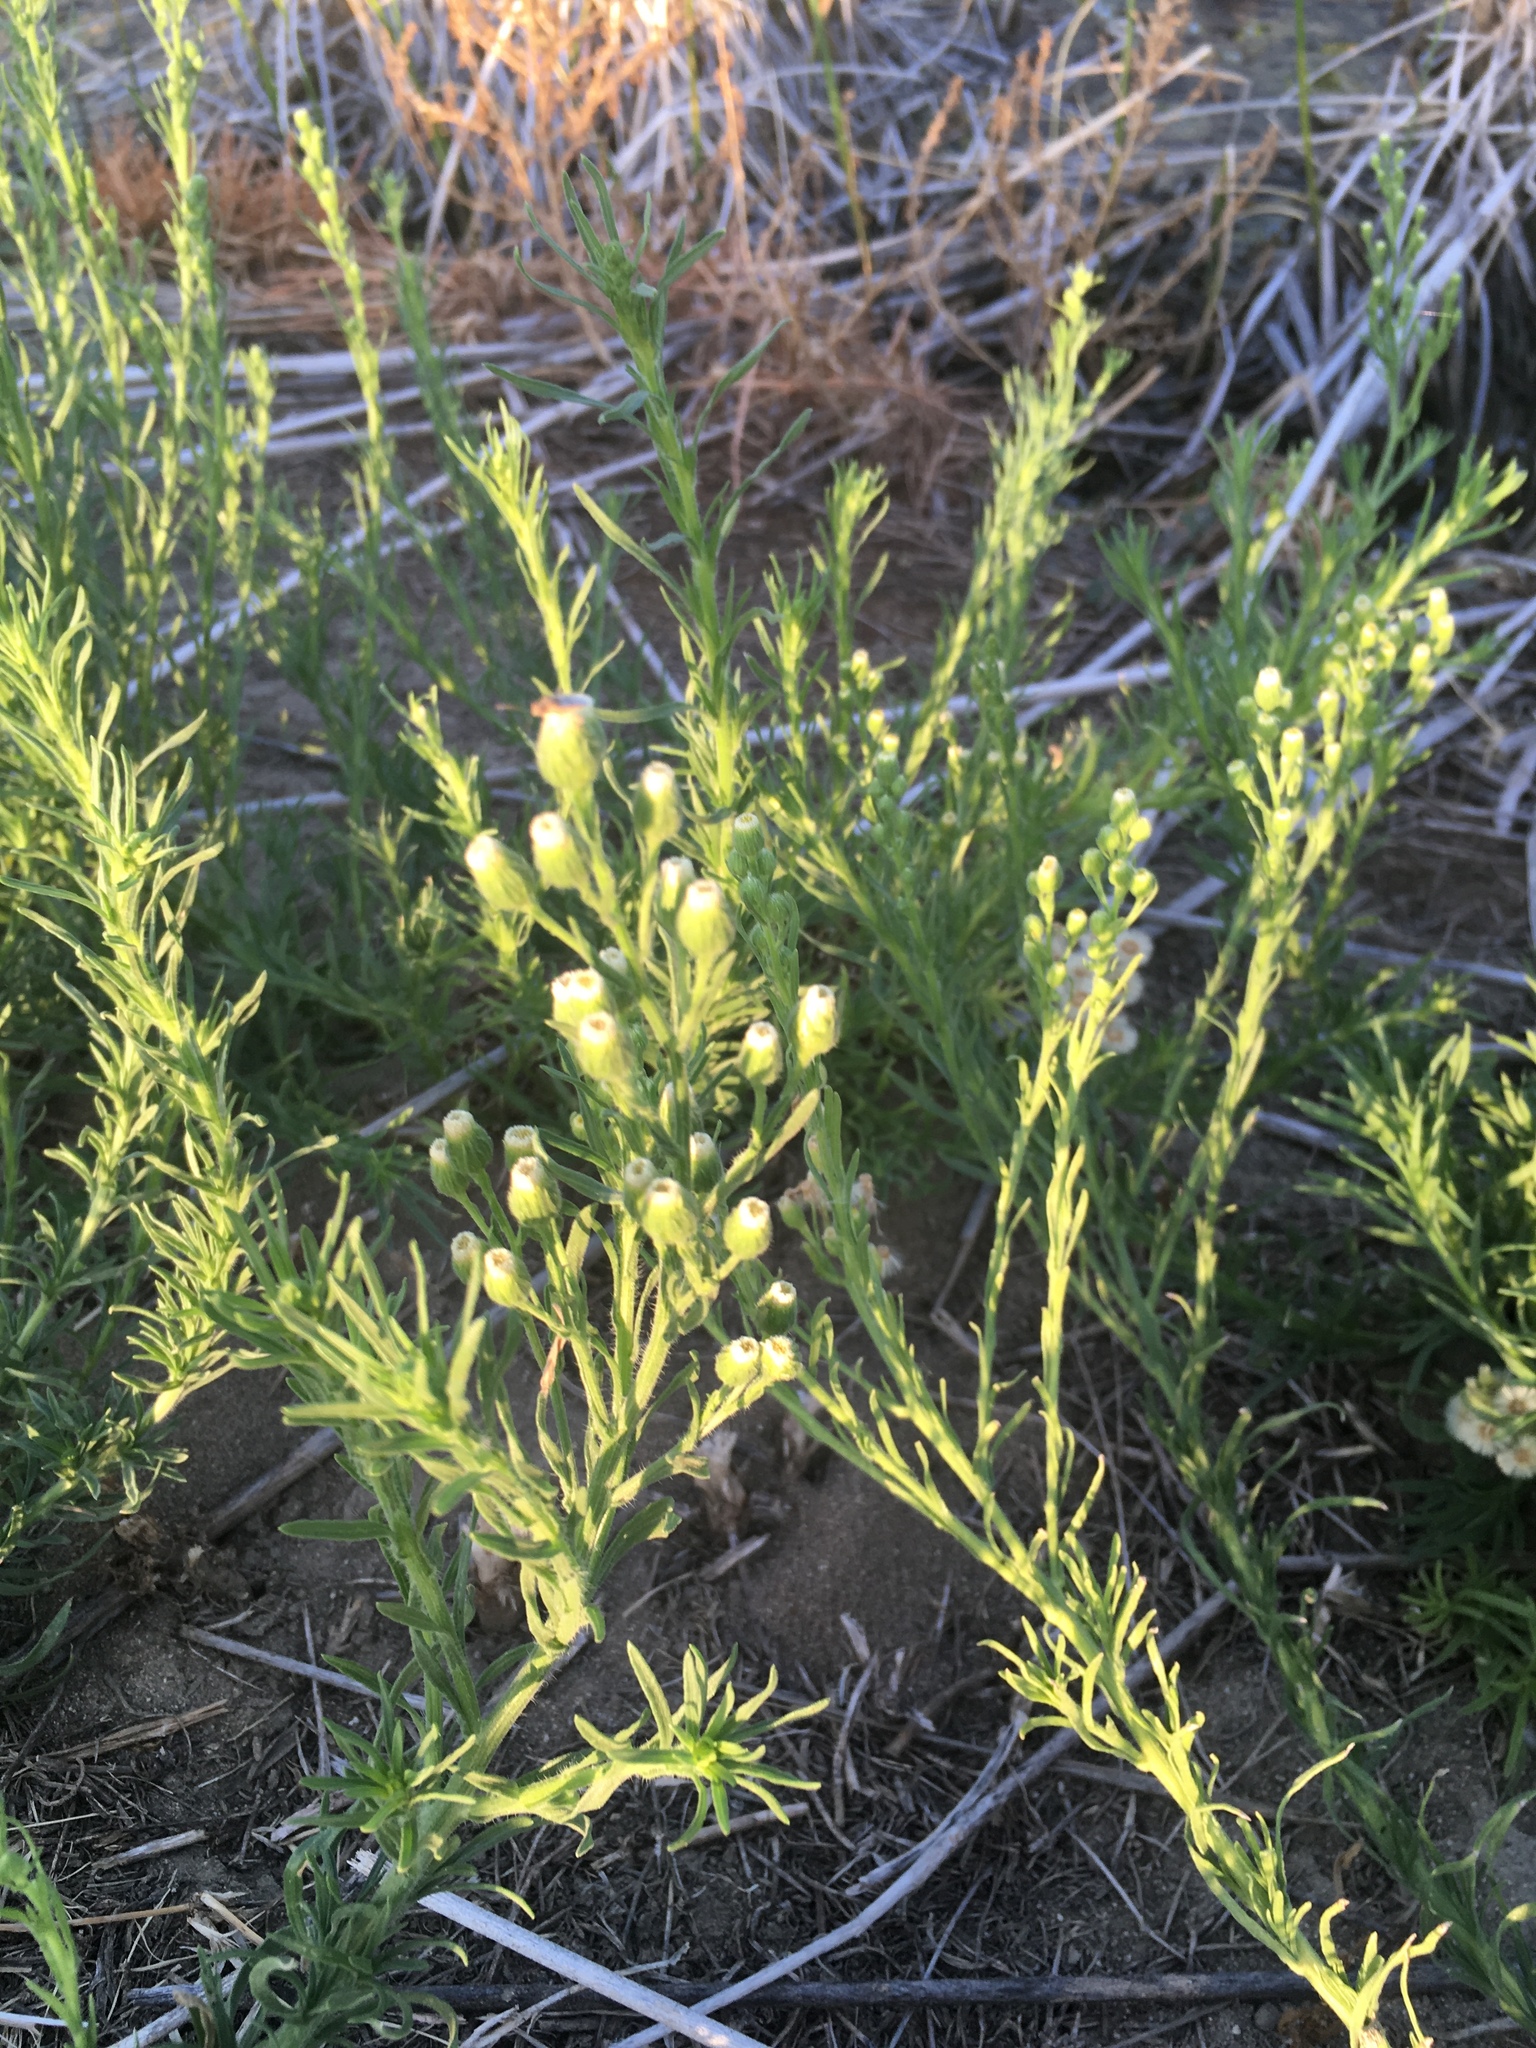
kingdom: Plantae
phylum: Tracheophyta
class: Magnoliopsida
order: Asterales
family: Asteraceae
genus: Erigeron
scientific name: Erigeron bonariensis
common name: Argentine fleabane
